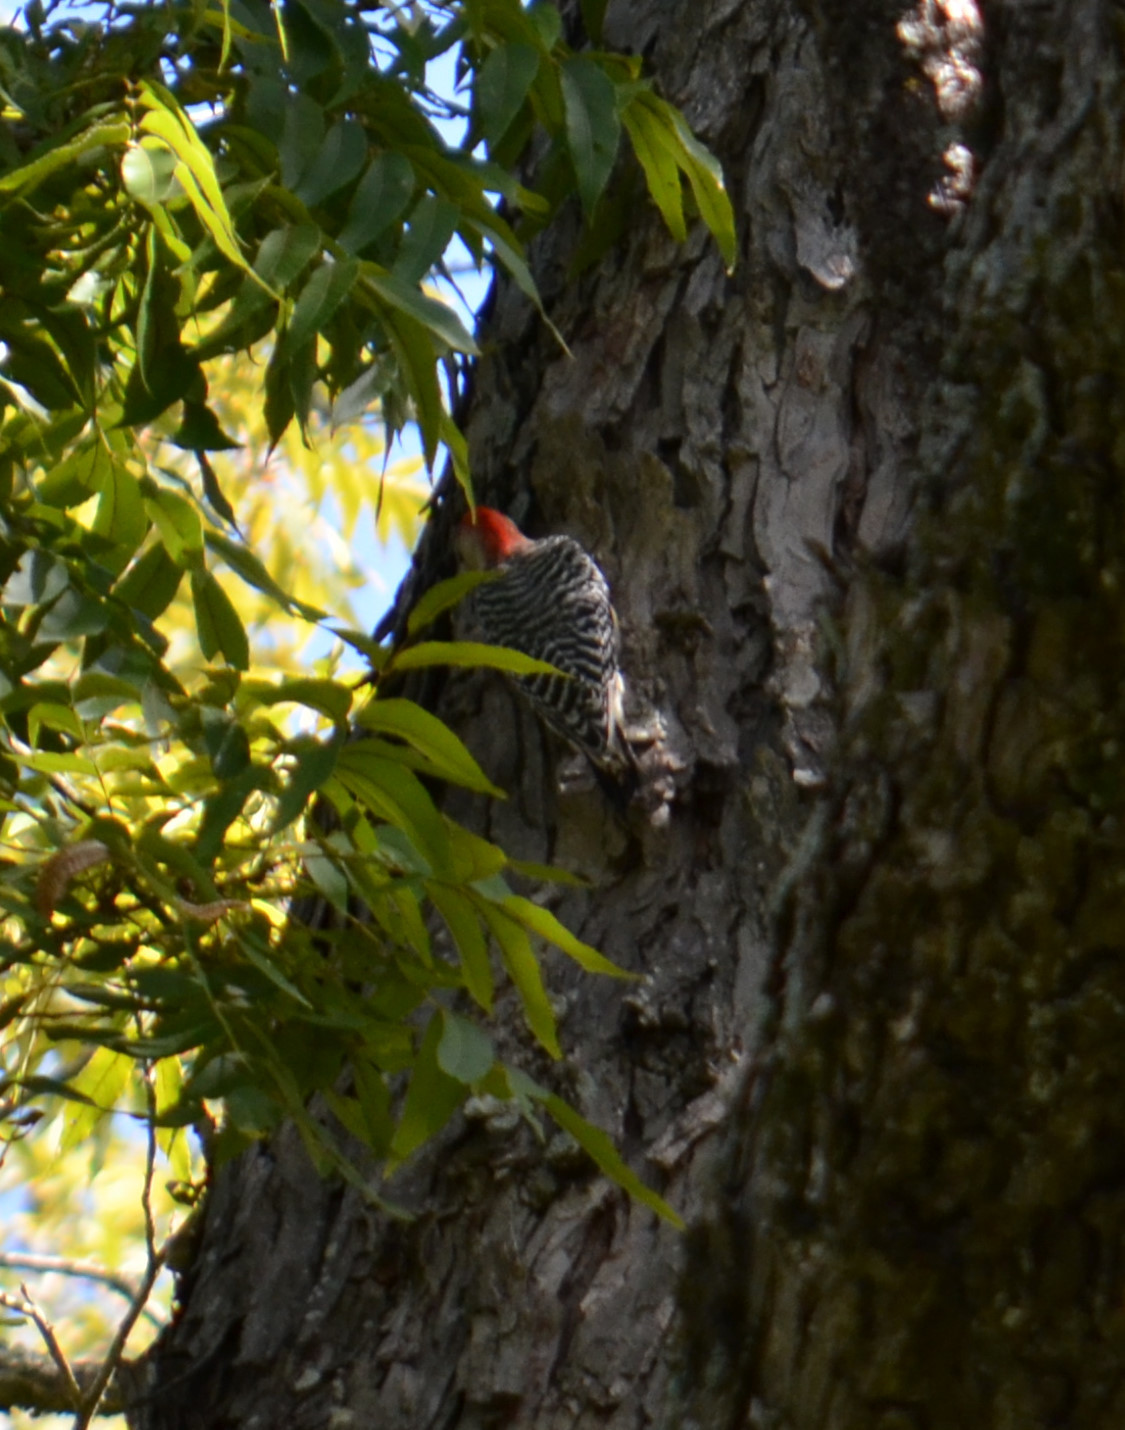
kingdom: Animalia
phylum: Chordata
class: Aves
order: Piciformes
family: Picidae
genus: Melanerpes
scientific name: Melanerpes carolinus
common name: Red-bellied woodpecker
